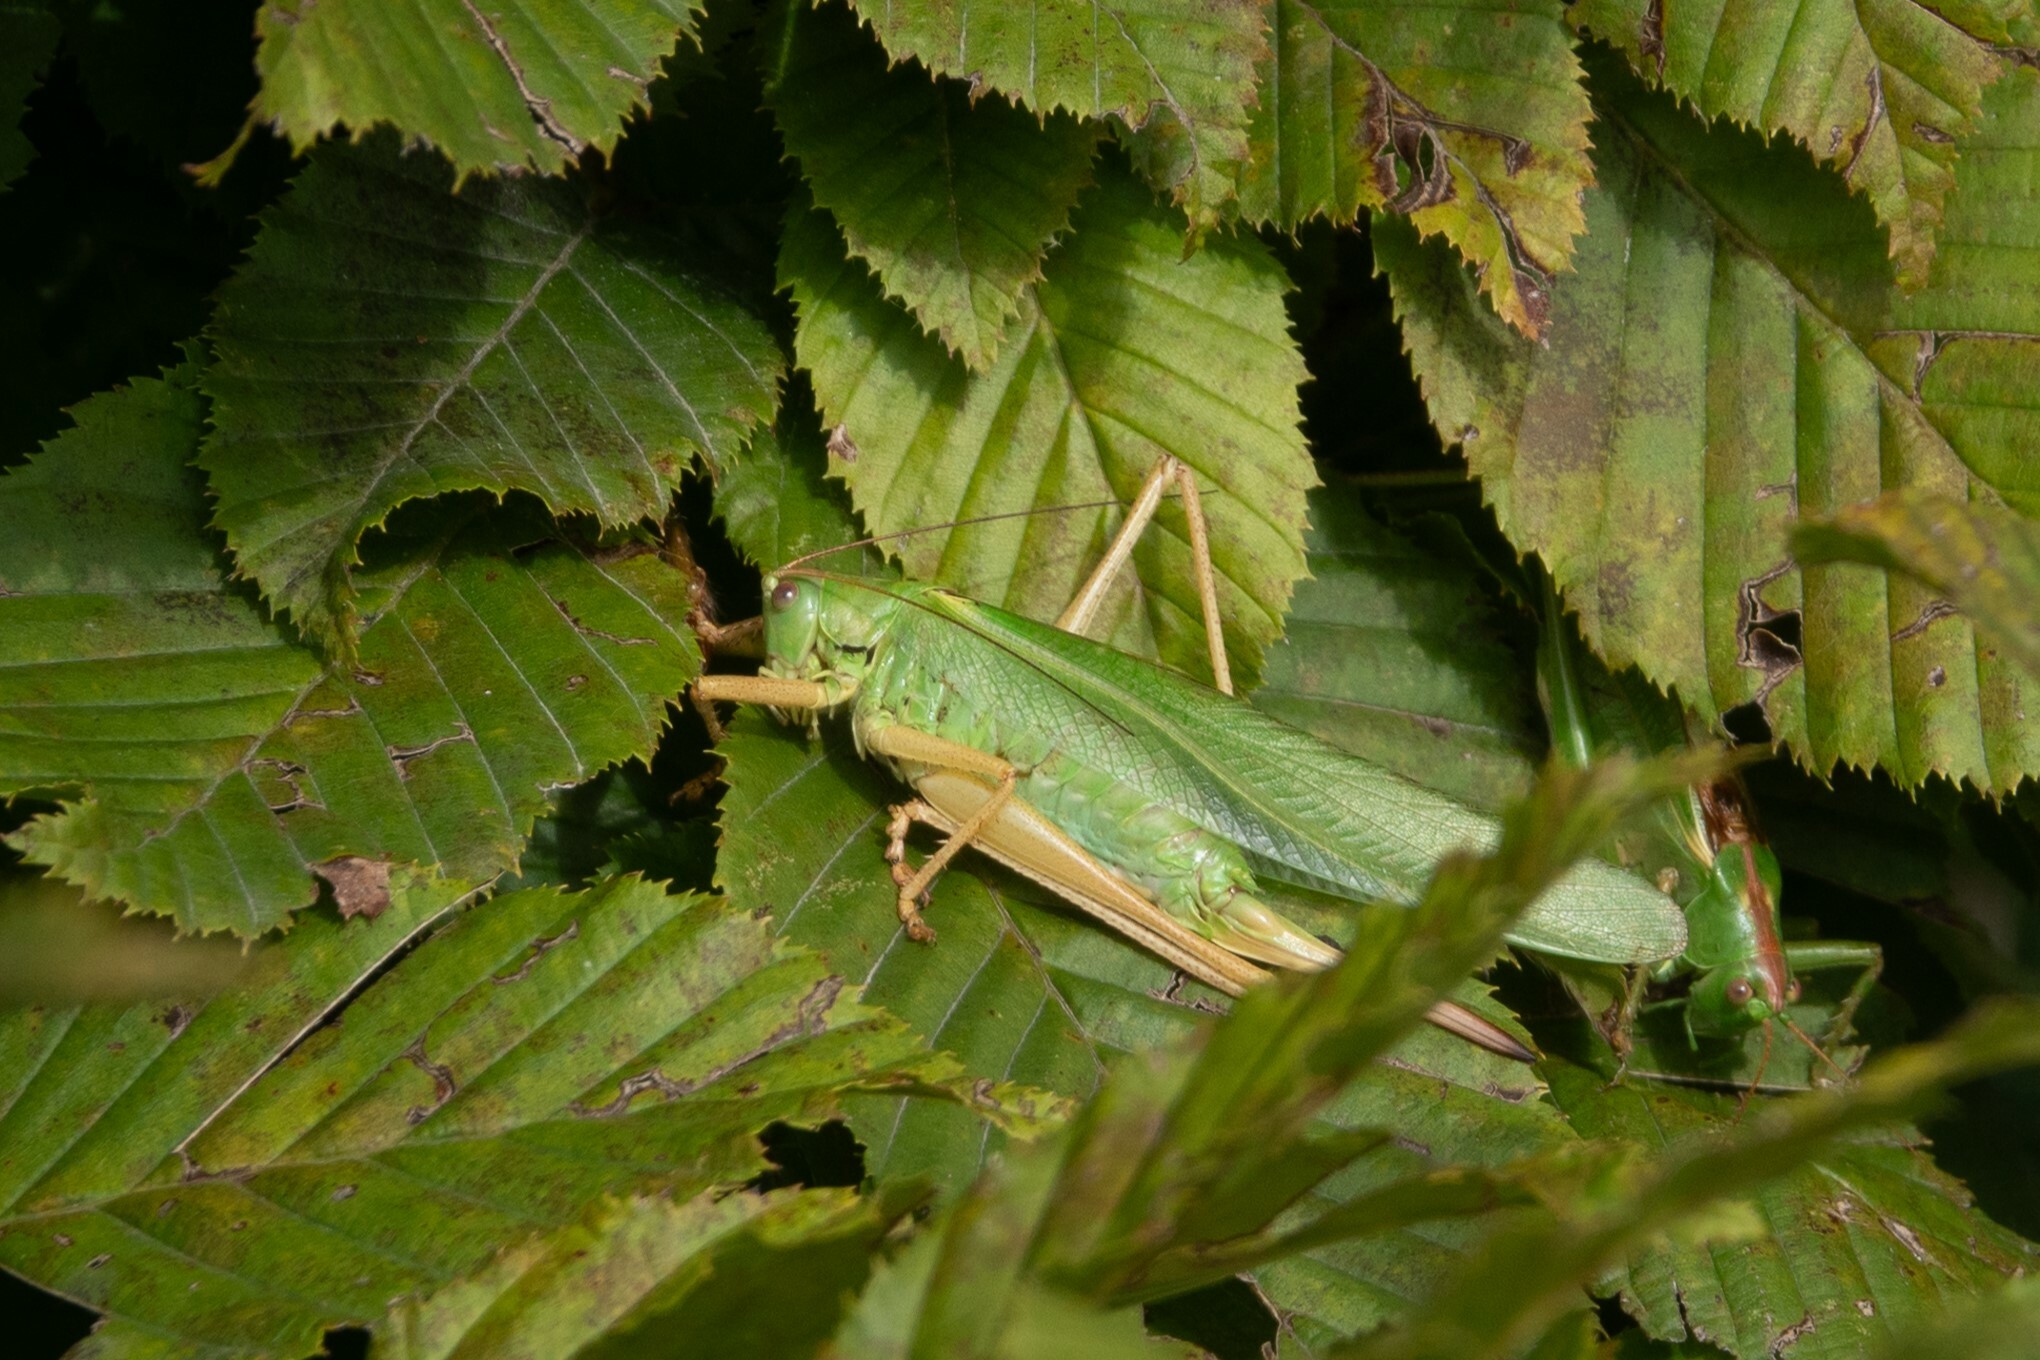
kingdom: Animalia
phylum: Arthropoda
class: Insecta
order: Orthoptera
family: Tettigoniidae
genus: Tettigonia
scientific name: Tettigonia viridissima
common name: Great green bush-cricket
